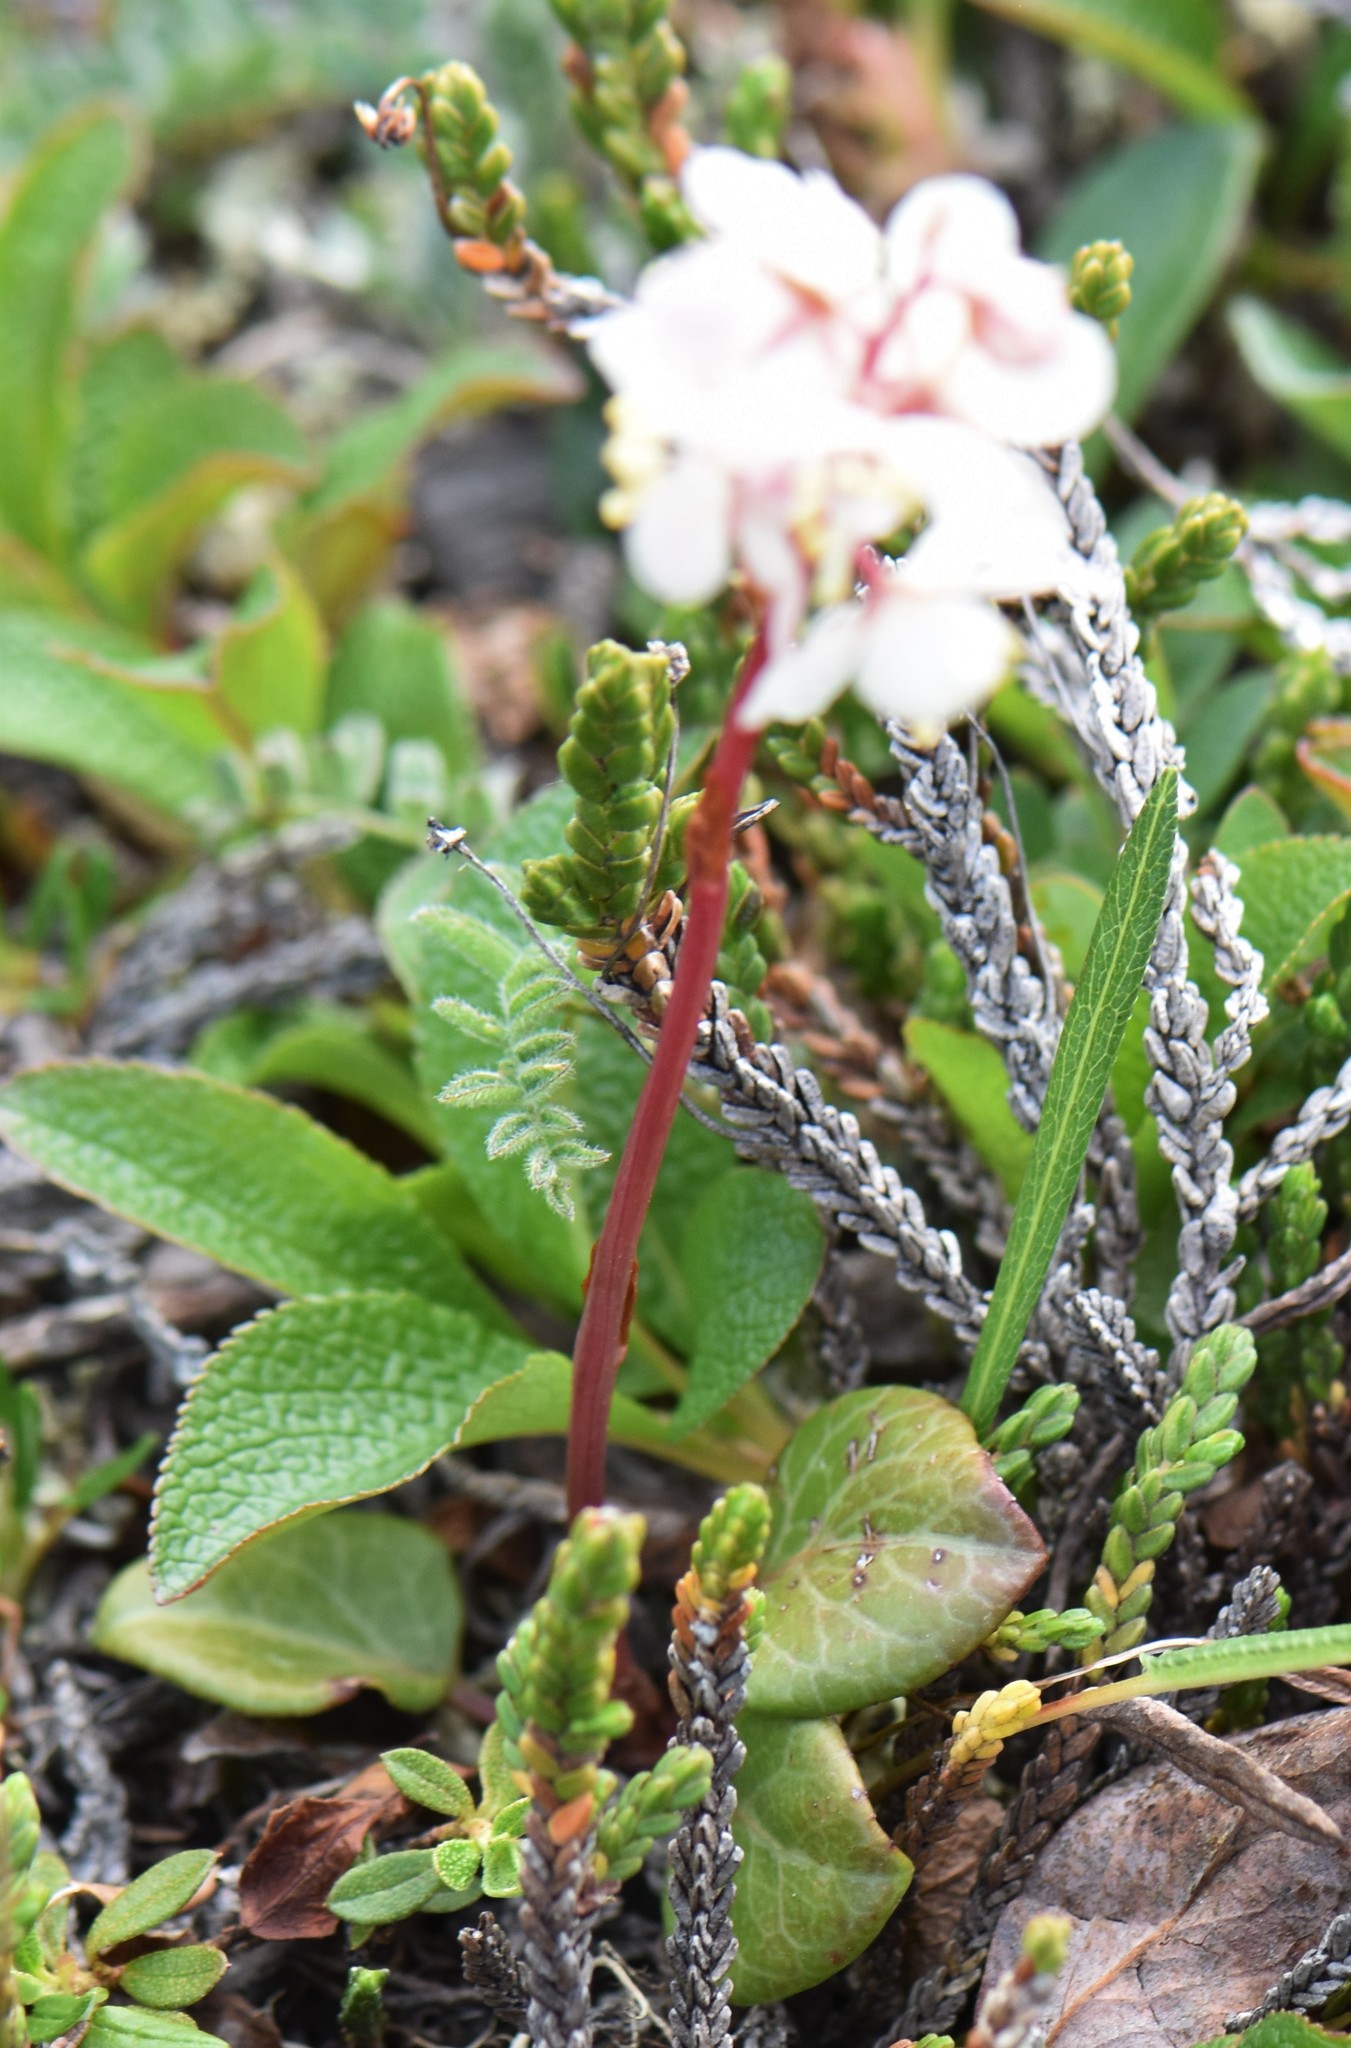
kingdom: Plantae
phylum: Tracheophyta
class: Magnoliopsida
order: Ericales
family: Ericaceae
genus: Pyrola
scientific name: Pyrola grandiflora
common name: Arctic pyrola
